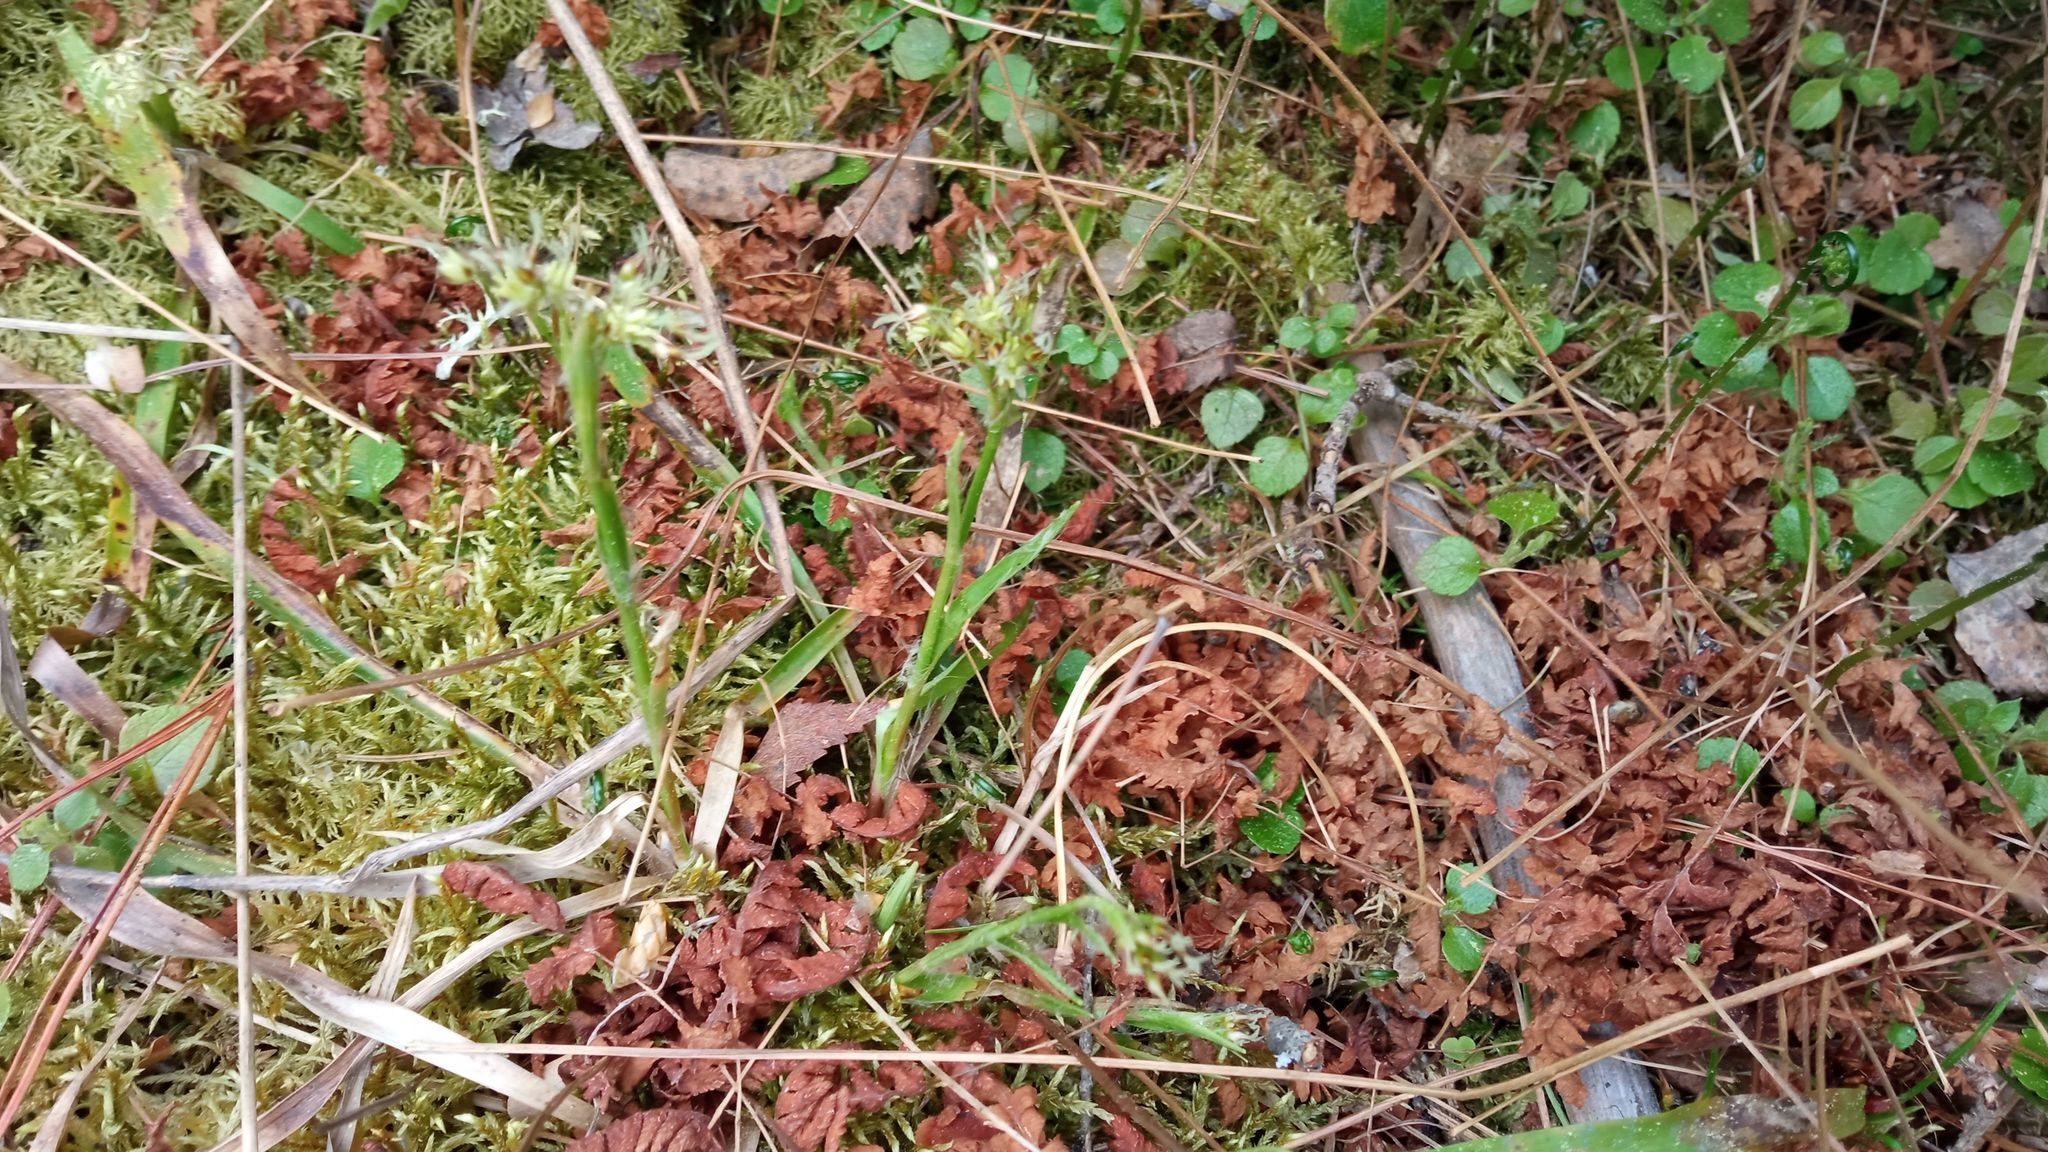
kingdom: Plantae
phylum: Tracheophyta
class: Liliopsida
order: Poales
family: Juncaceae
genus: Luzula
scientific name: Luzula pilosa
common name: Hairy wood-rush
